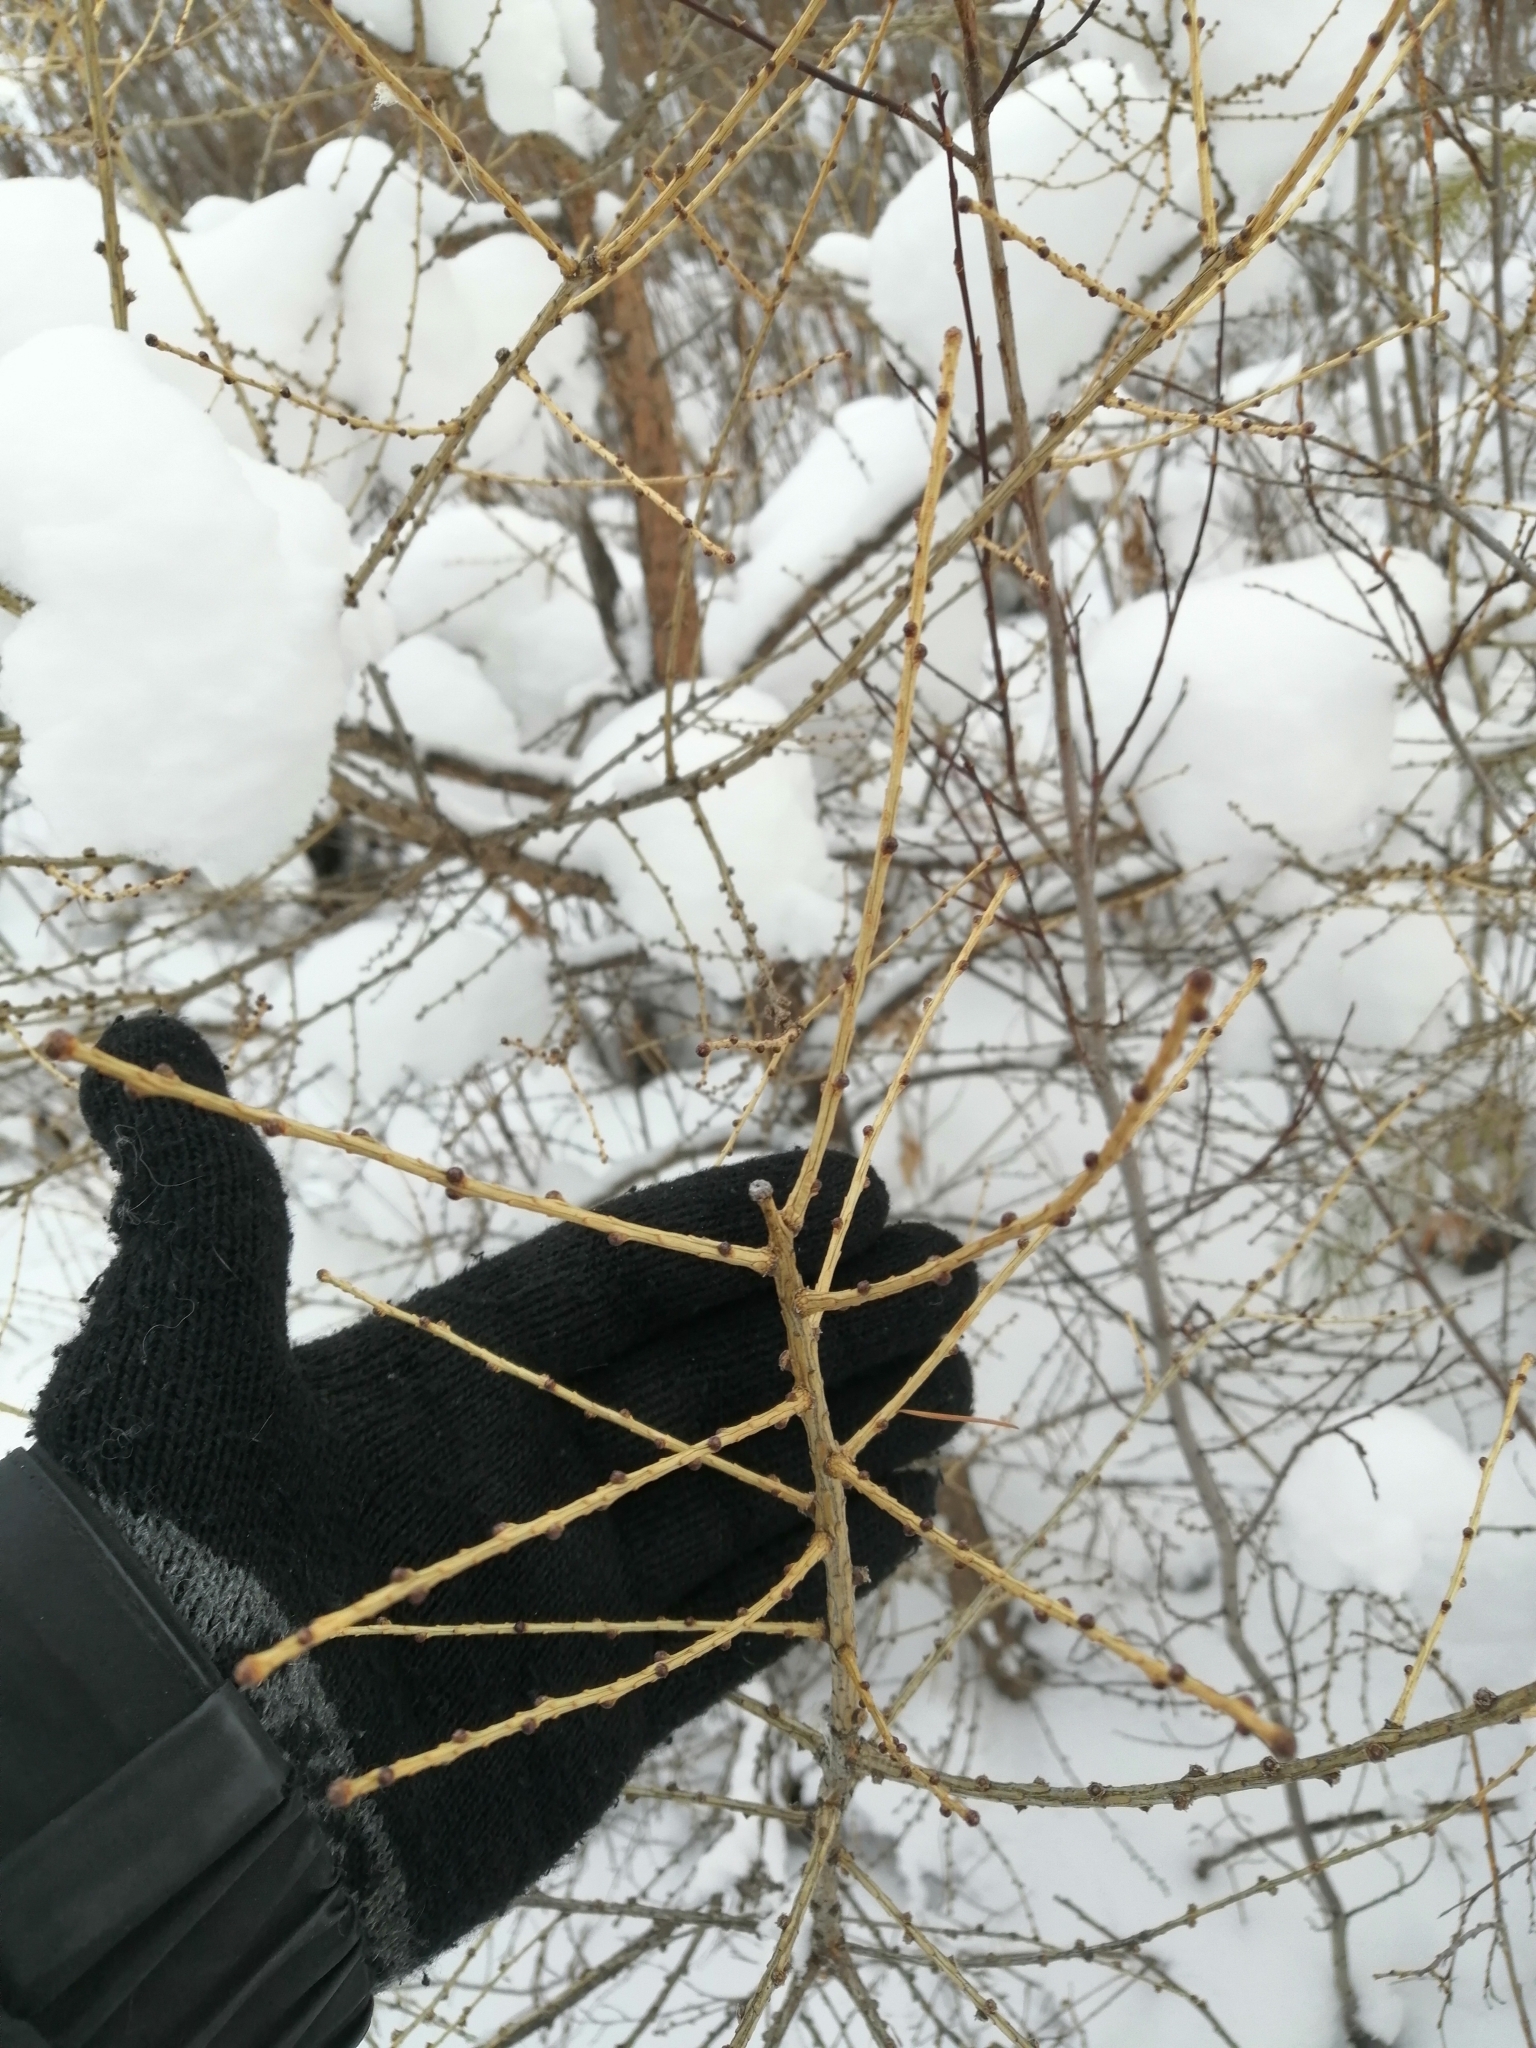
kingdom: Plantae
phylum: Tracheophyta
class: Pinopsida
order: Pinales
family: Pinaceae
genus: Larix
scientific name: Larix sibirica
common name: Siberian larch
